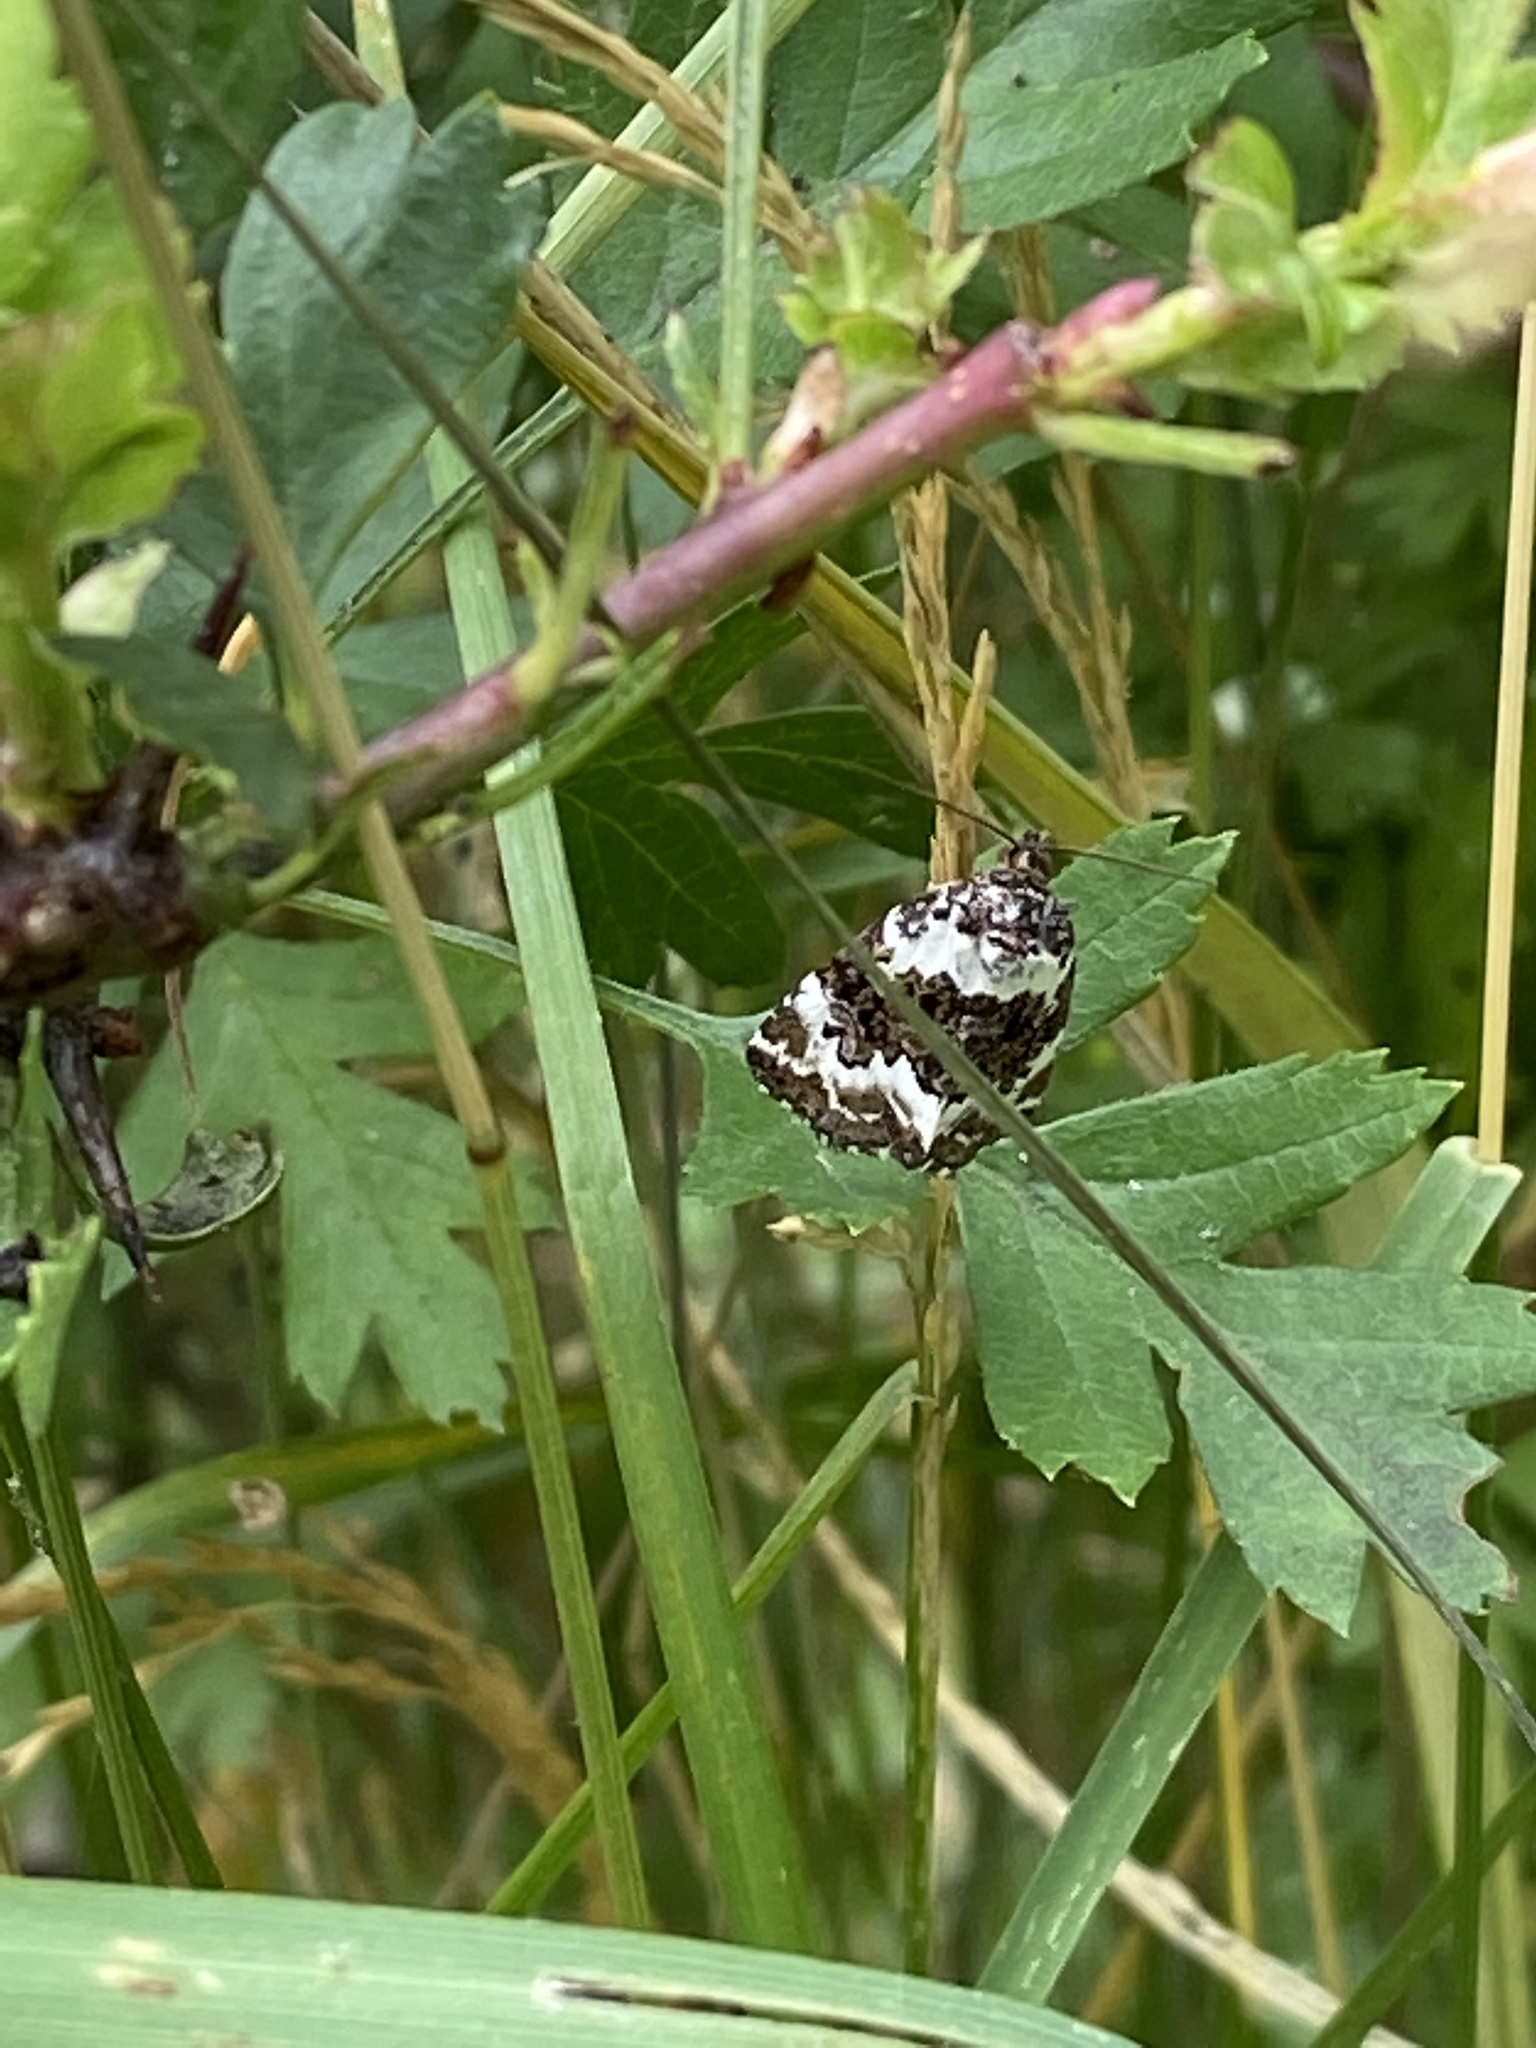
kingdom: Animalia
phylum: Arthropoda
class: Insecta
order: Lepidoptera
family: Noctuidae
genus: Deltote
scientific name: Deltote deceptoria
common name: Pretty marbled
